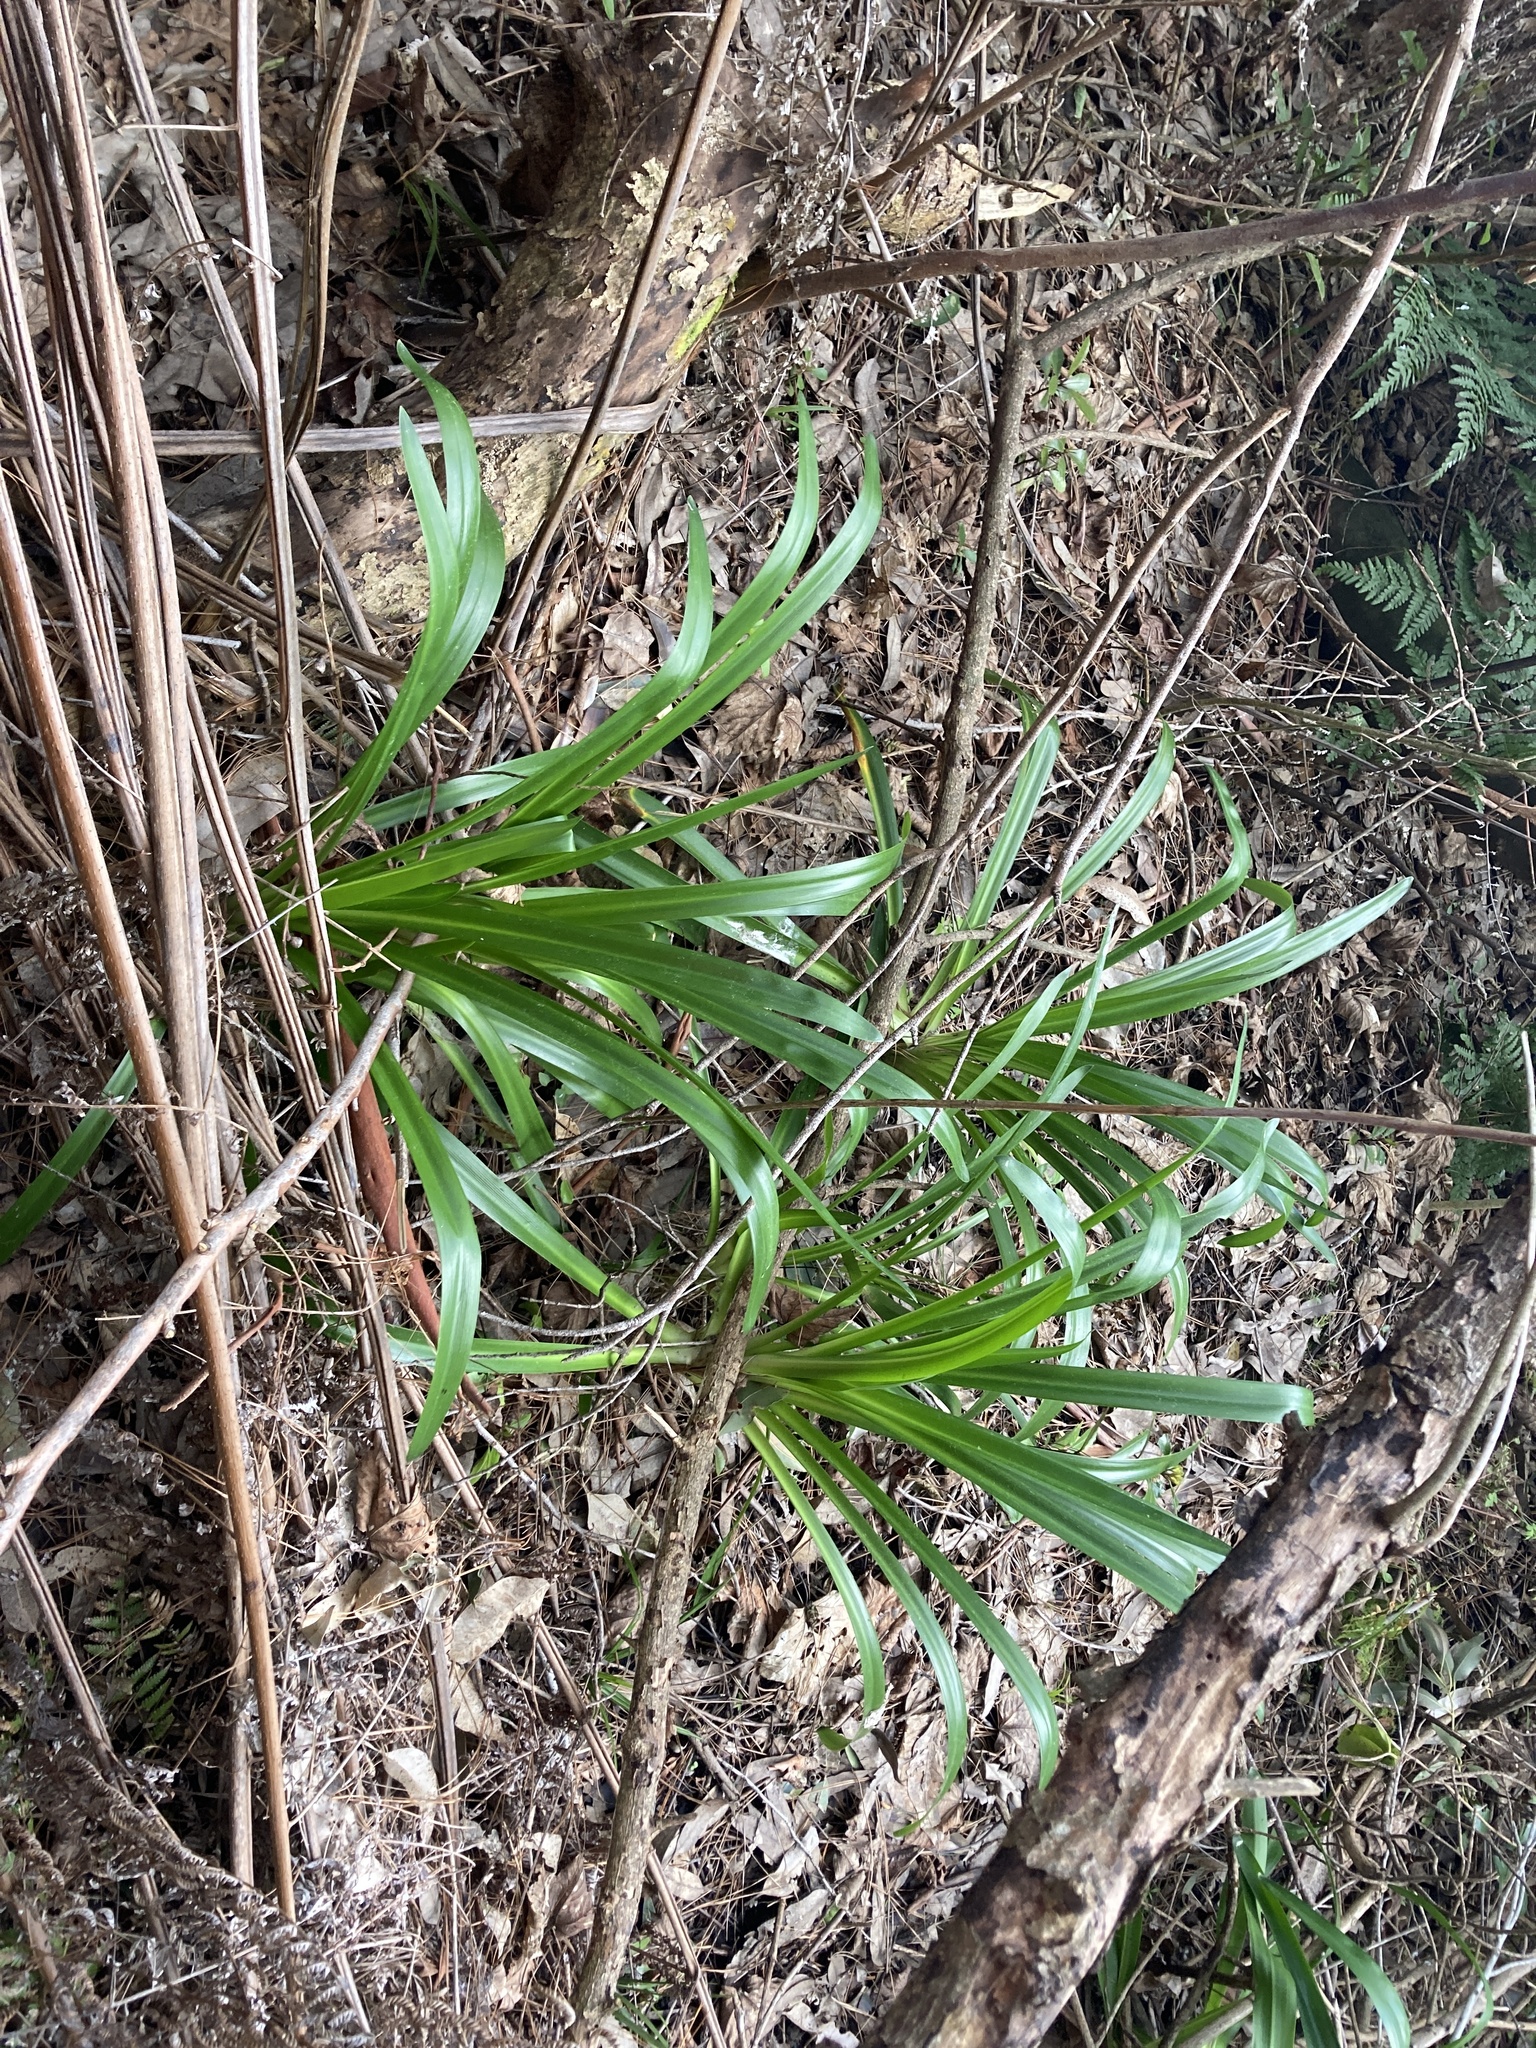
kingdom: Plantae
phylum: Tracheophyta
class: Liliopsida
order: Asparagales
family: Amaryllidaceae
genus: Agapanthus
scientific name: Agapanthus praecox
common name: African-lily
